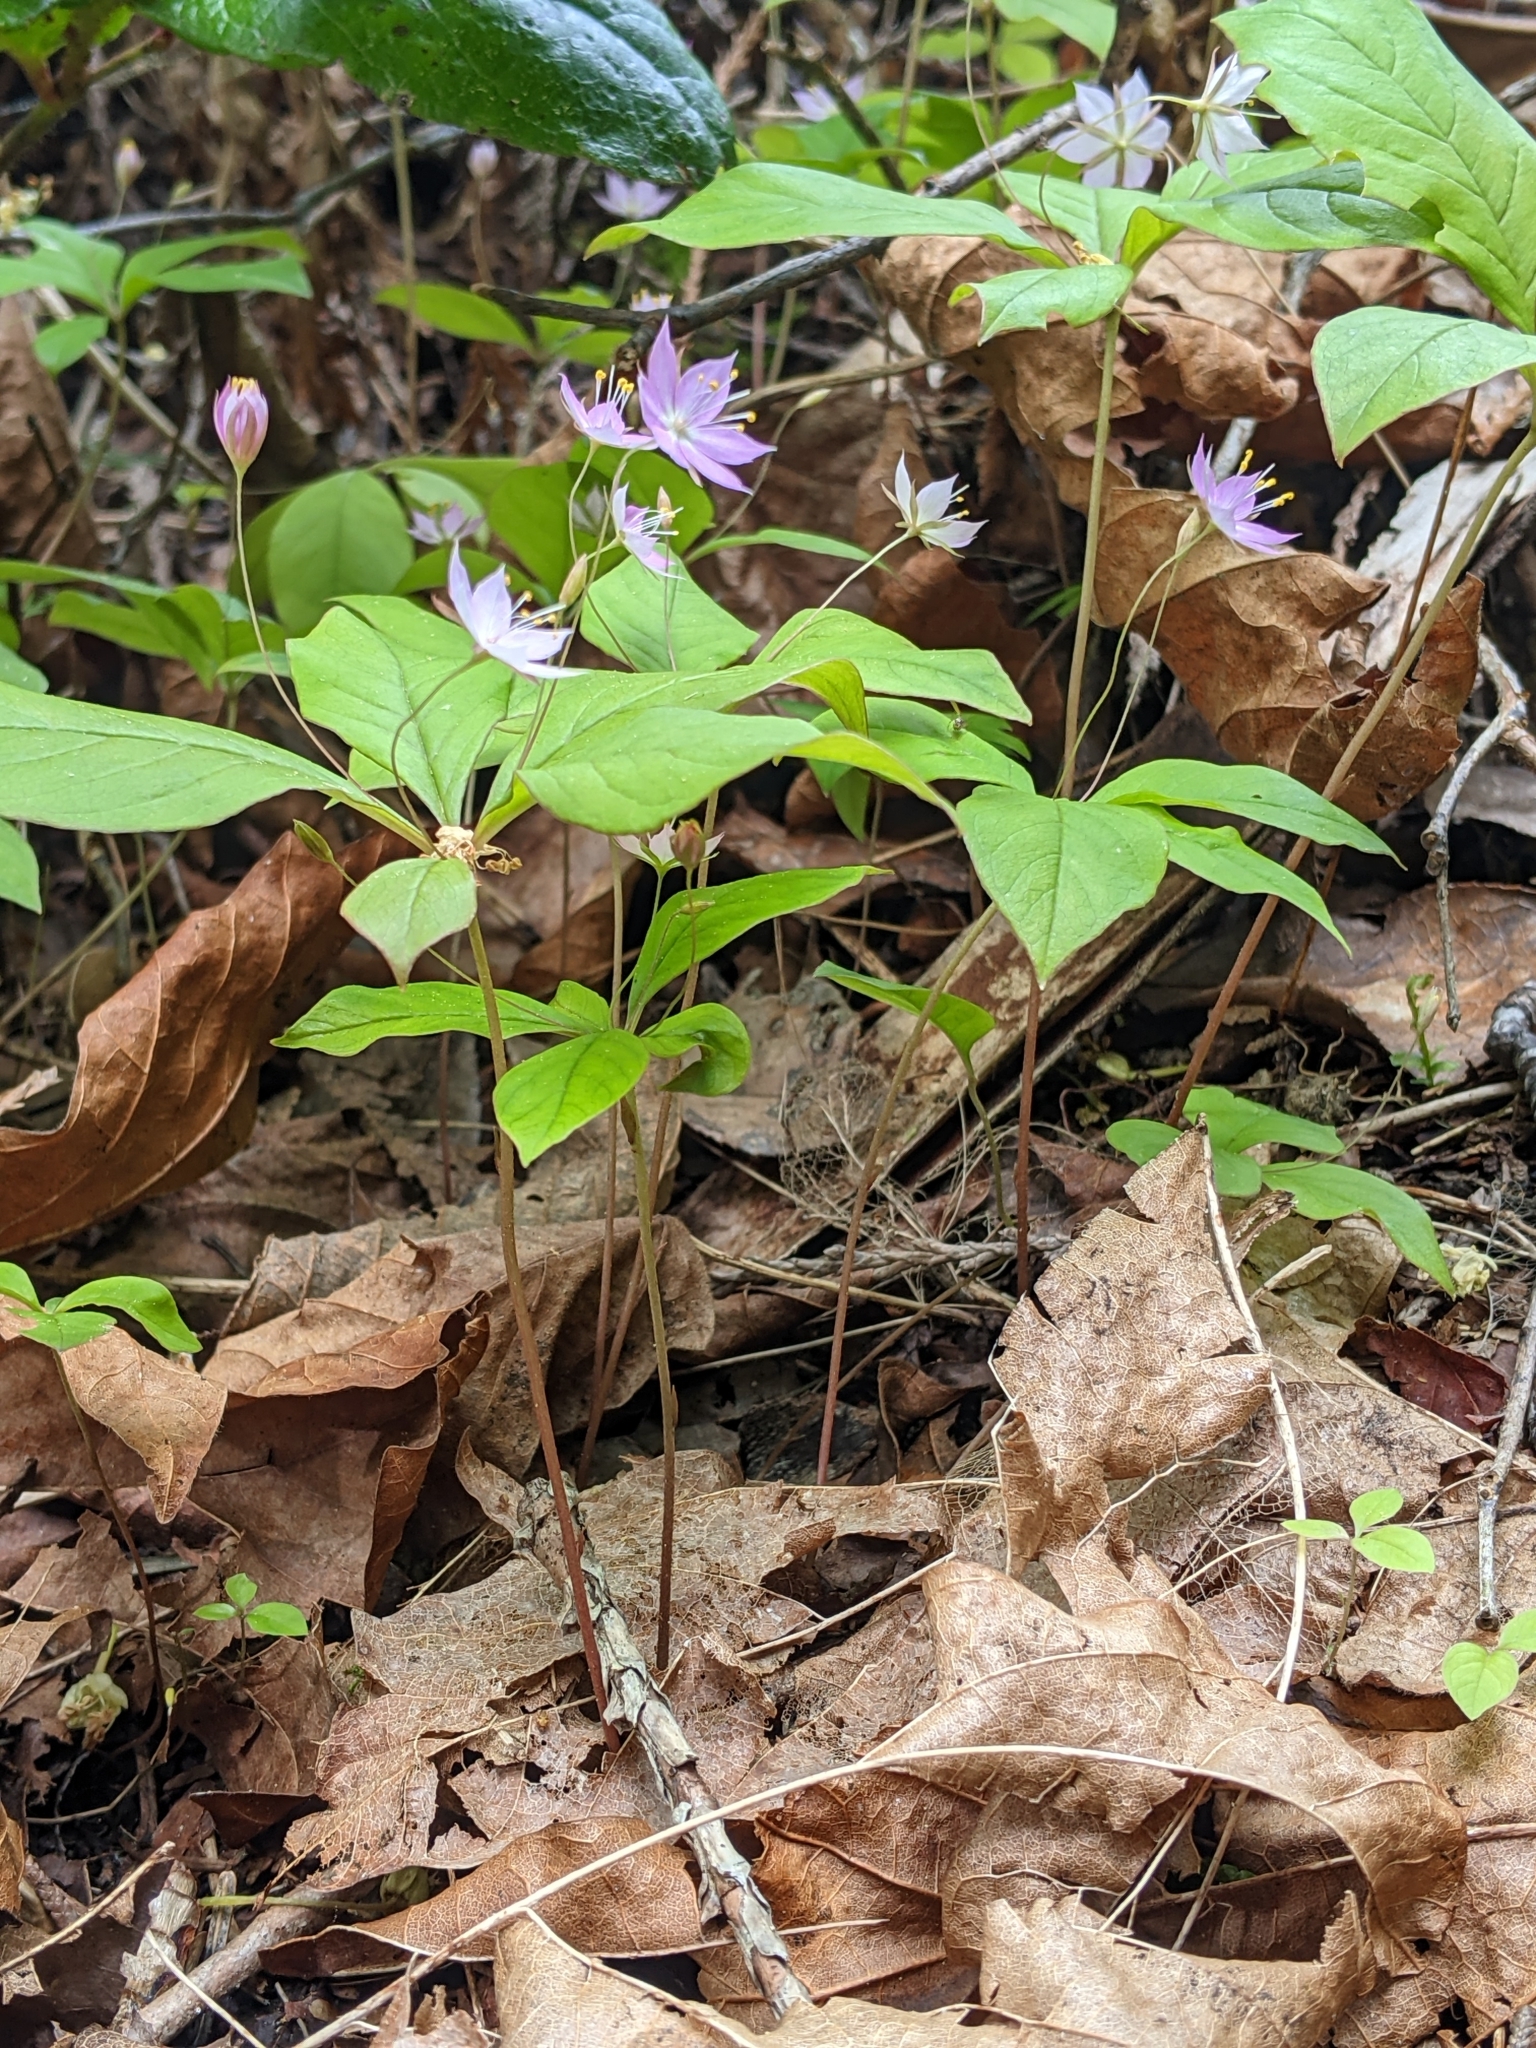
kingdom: Plantae
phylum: Tracheophyta
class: Magnoliopsida
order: Ericales
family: Primulaceae
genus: Lysimachia
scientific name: Lysimachia latifolia
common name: Pacific starflower
